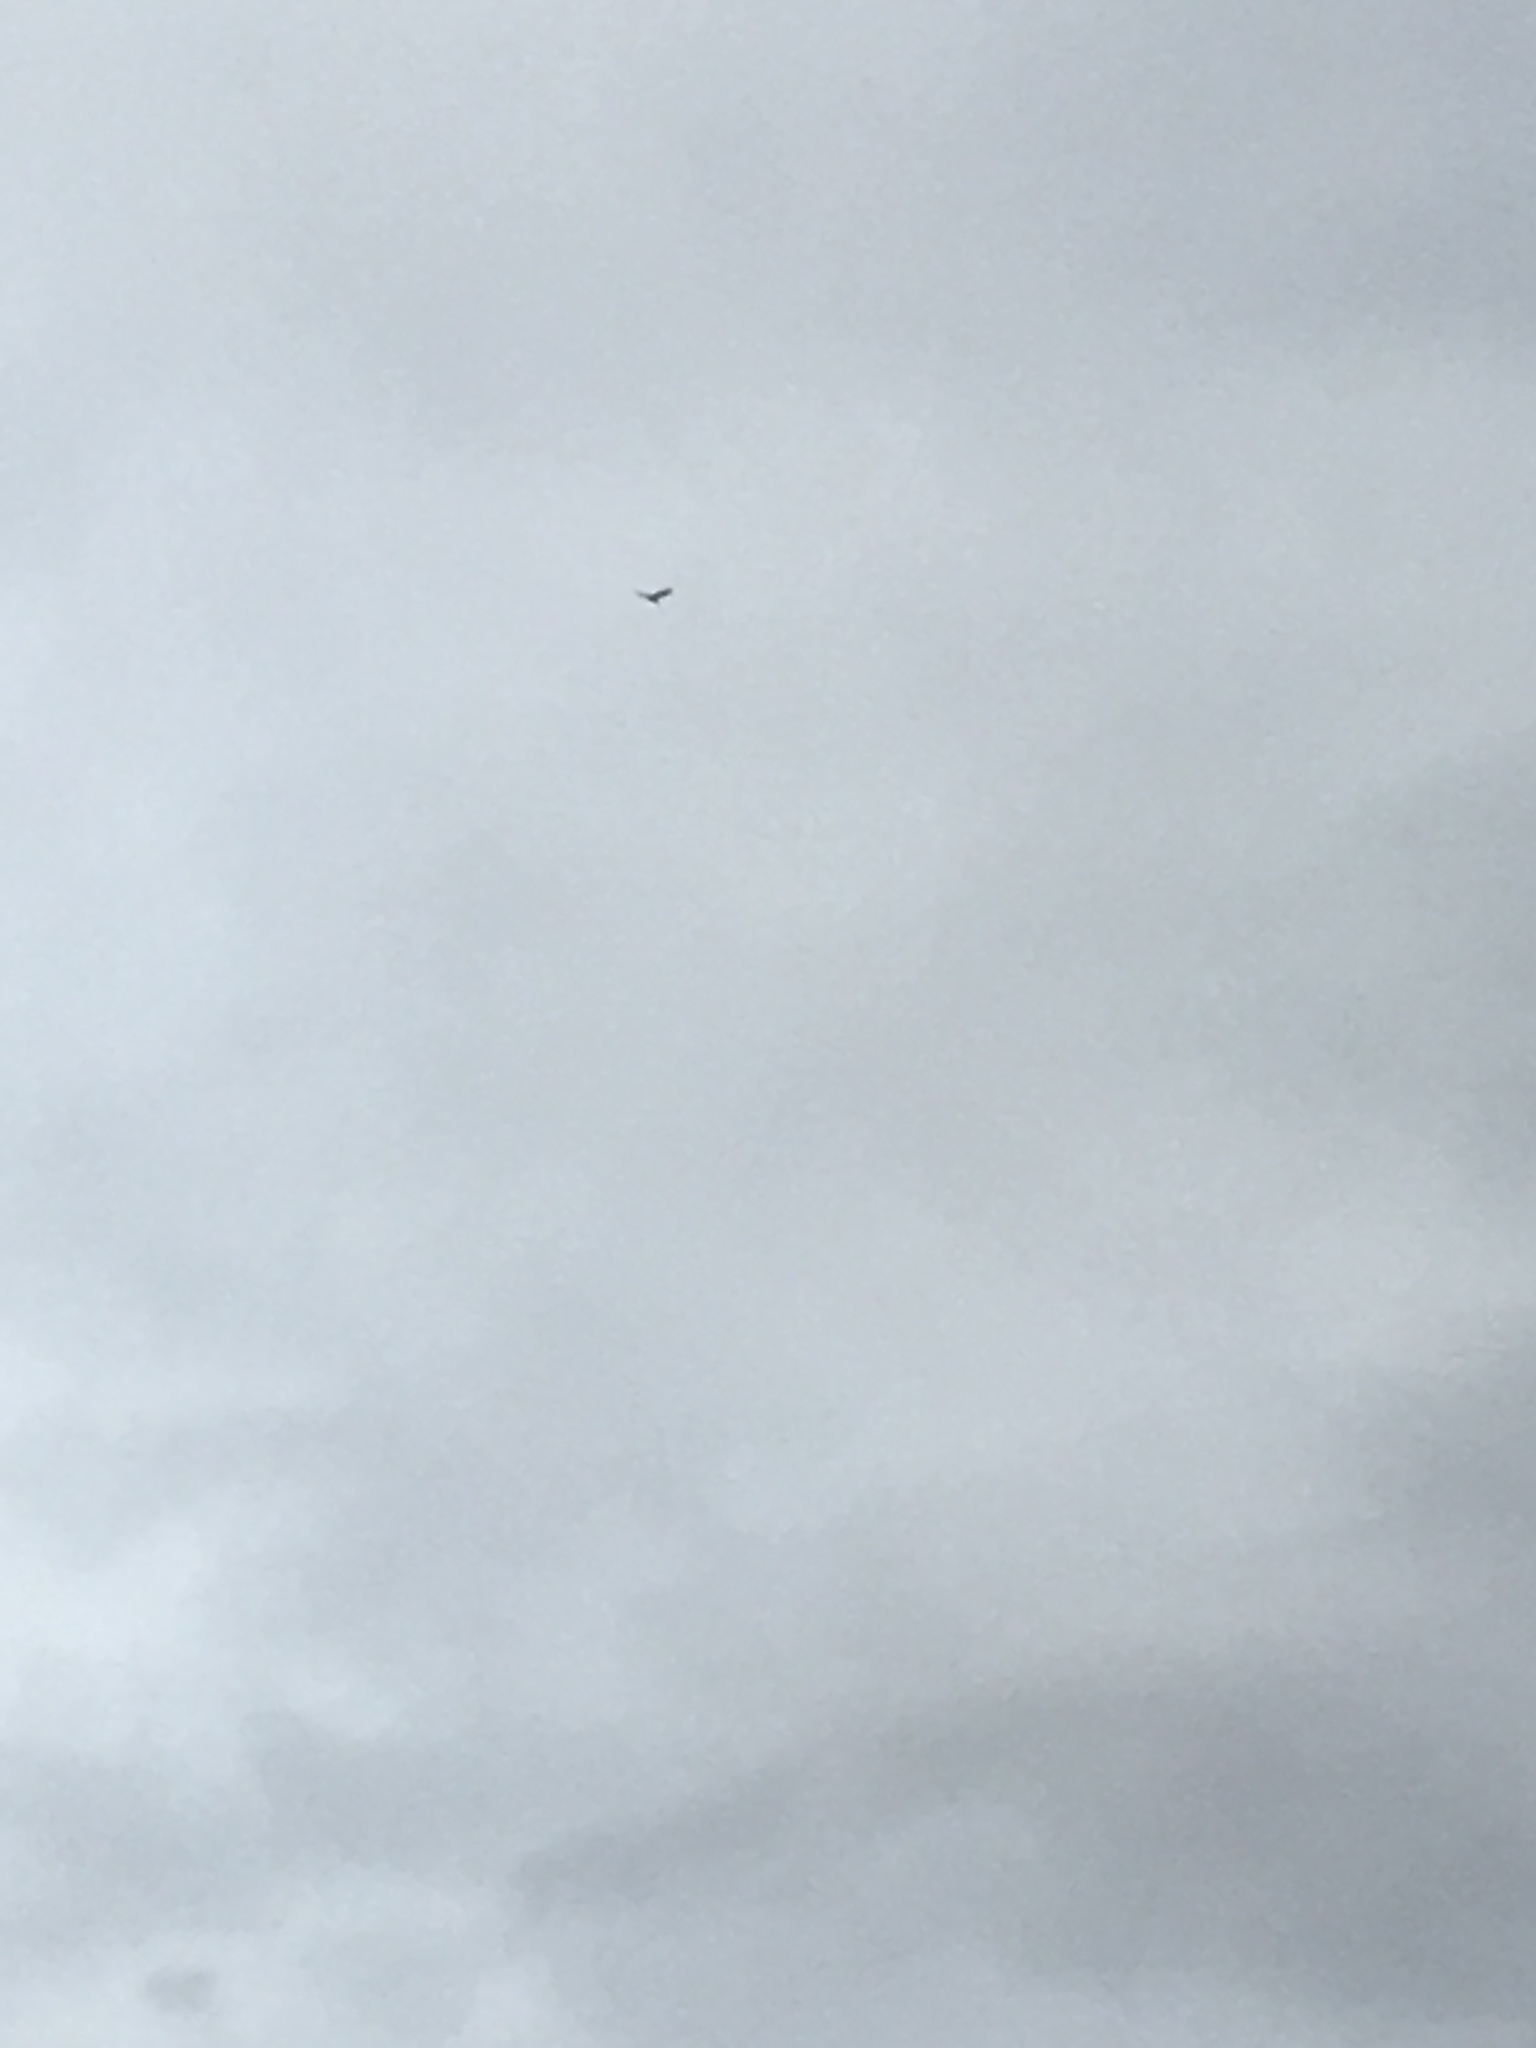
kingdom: Animalia
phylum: Chordata
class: Aves
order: Accipitriformes
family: Cathartidae
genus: Cathartes
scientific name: Cathartes aura
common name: Turkey vulture
